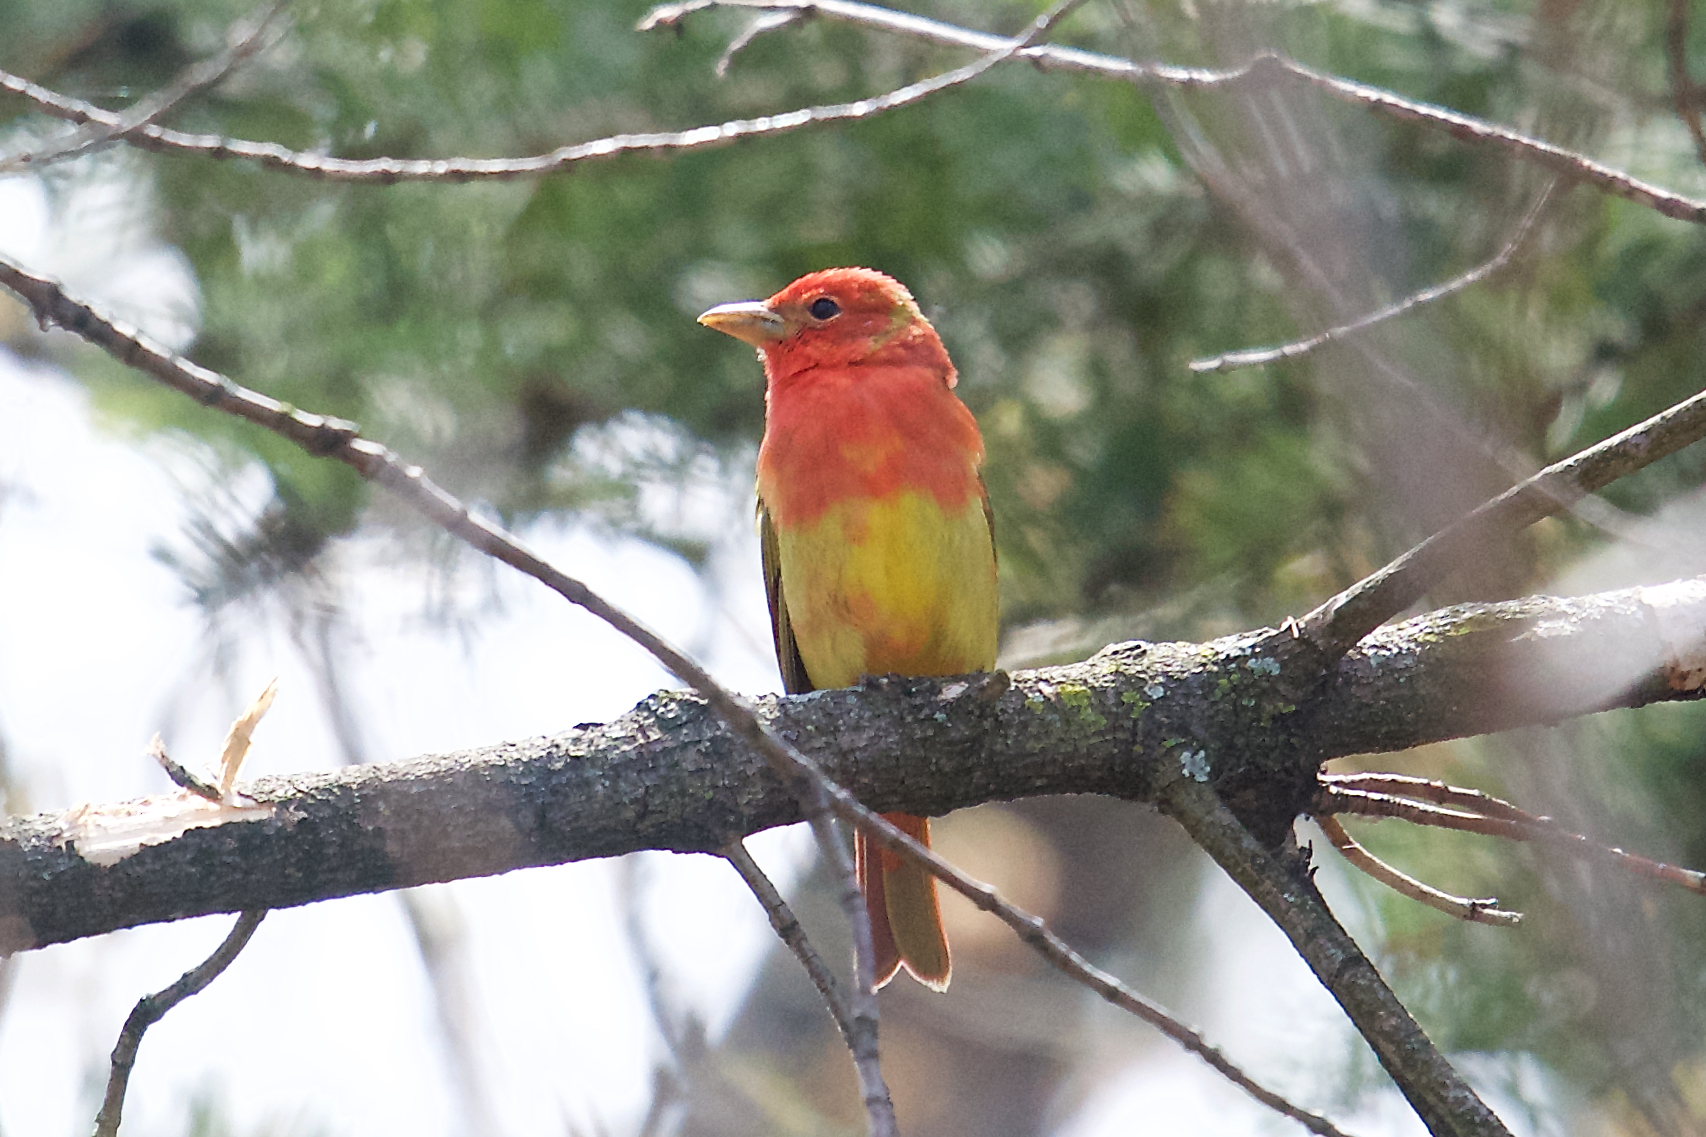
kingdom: Animalia
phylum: Chordata
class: Aves
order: Passeriformes
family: Cardinalidae
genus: Piranga
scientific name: Piranga rubra
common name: Summer tanager
